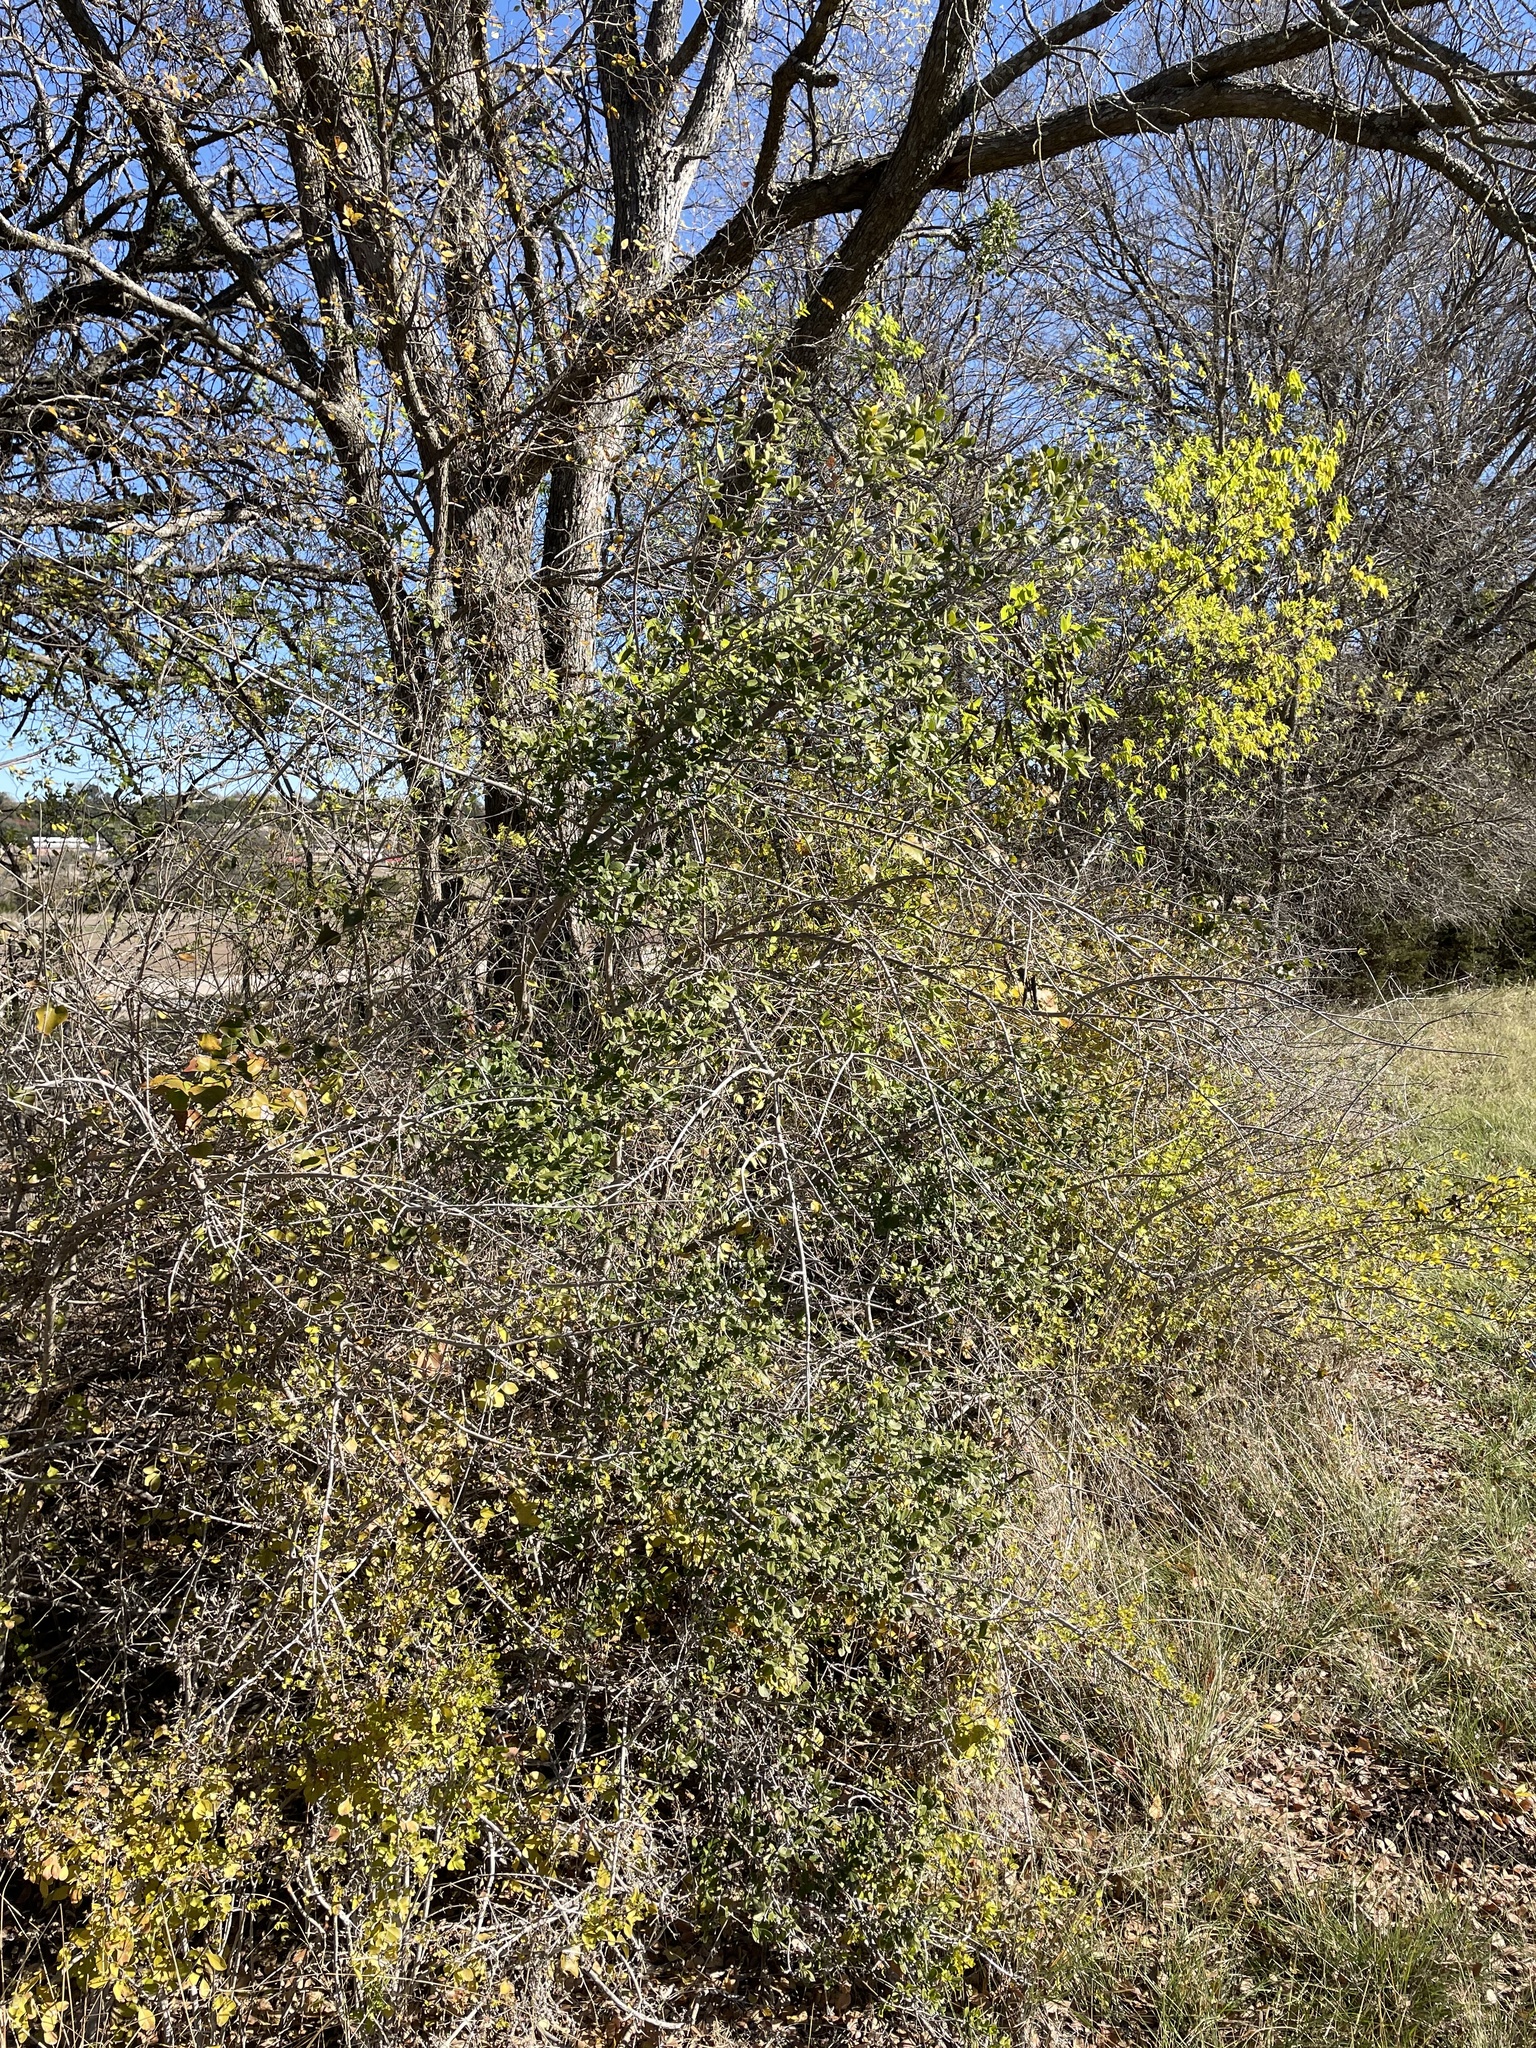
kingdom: Plantae
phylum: Tracheophyta
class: Magnoliopsida
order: Ericales
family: Ebenaceae
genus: Diospyros
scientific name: Diospyros texana
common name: Texas persimmon
